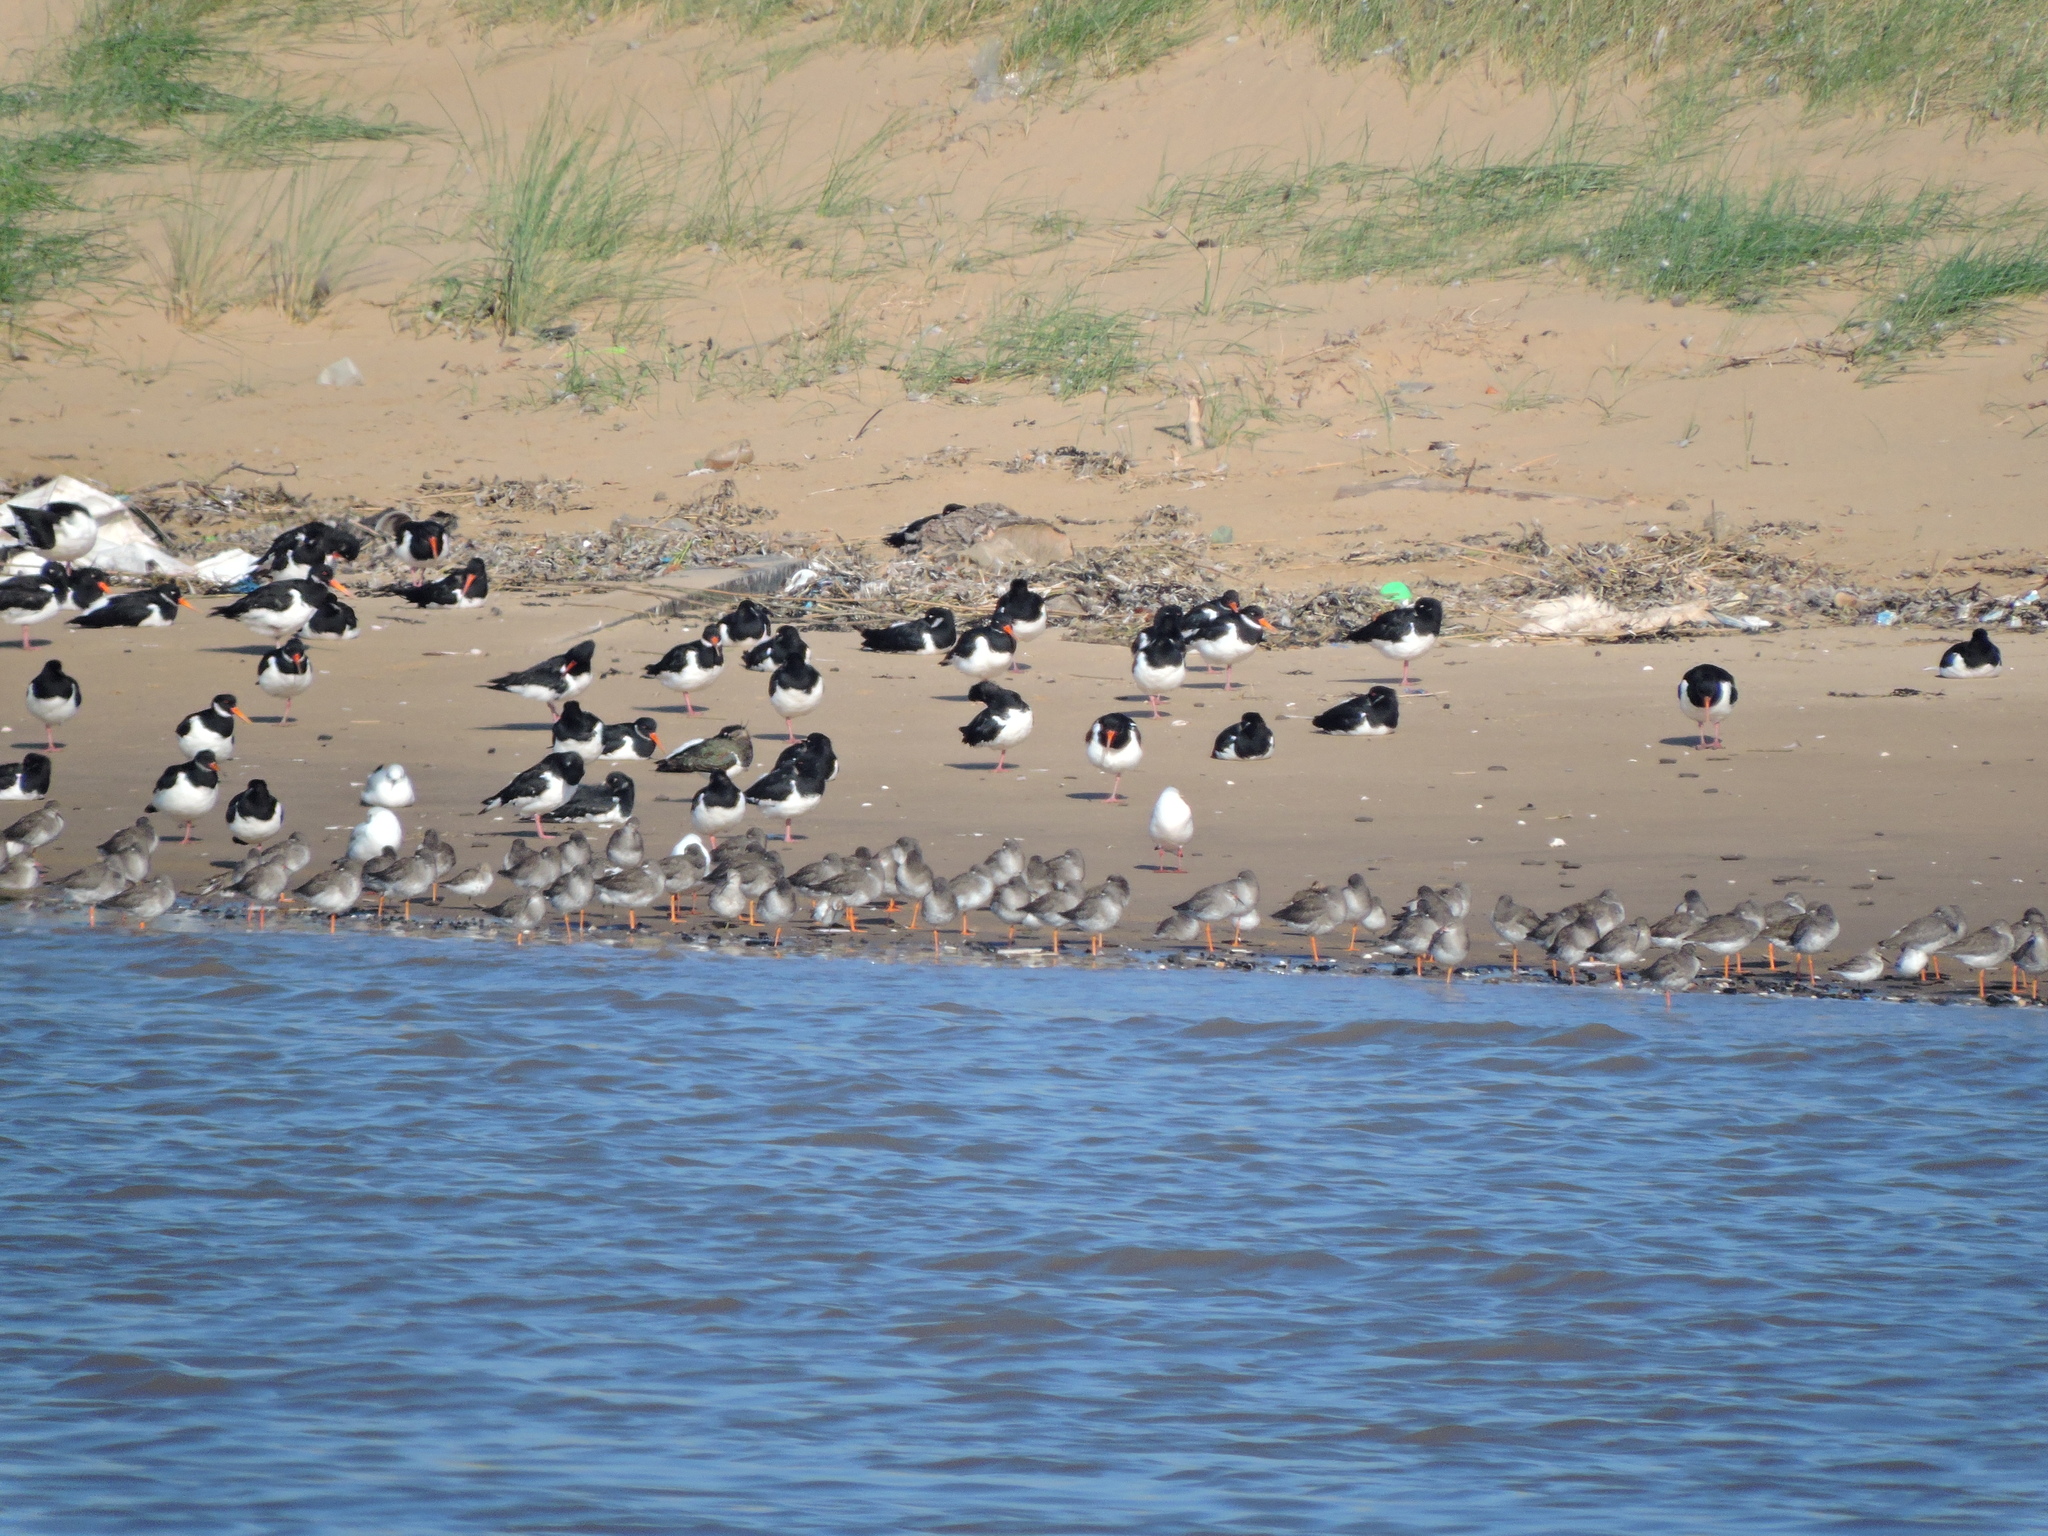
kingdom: Animalia
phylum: Chordata
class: Aves
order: Charadriiformes
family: Scolopacidae
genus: Tringa
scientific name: Tringa totanus
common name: Common redshank
